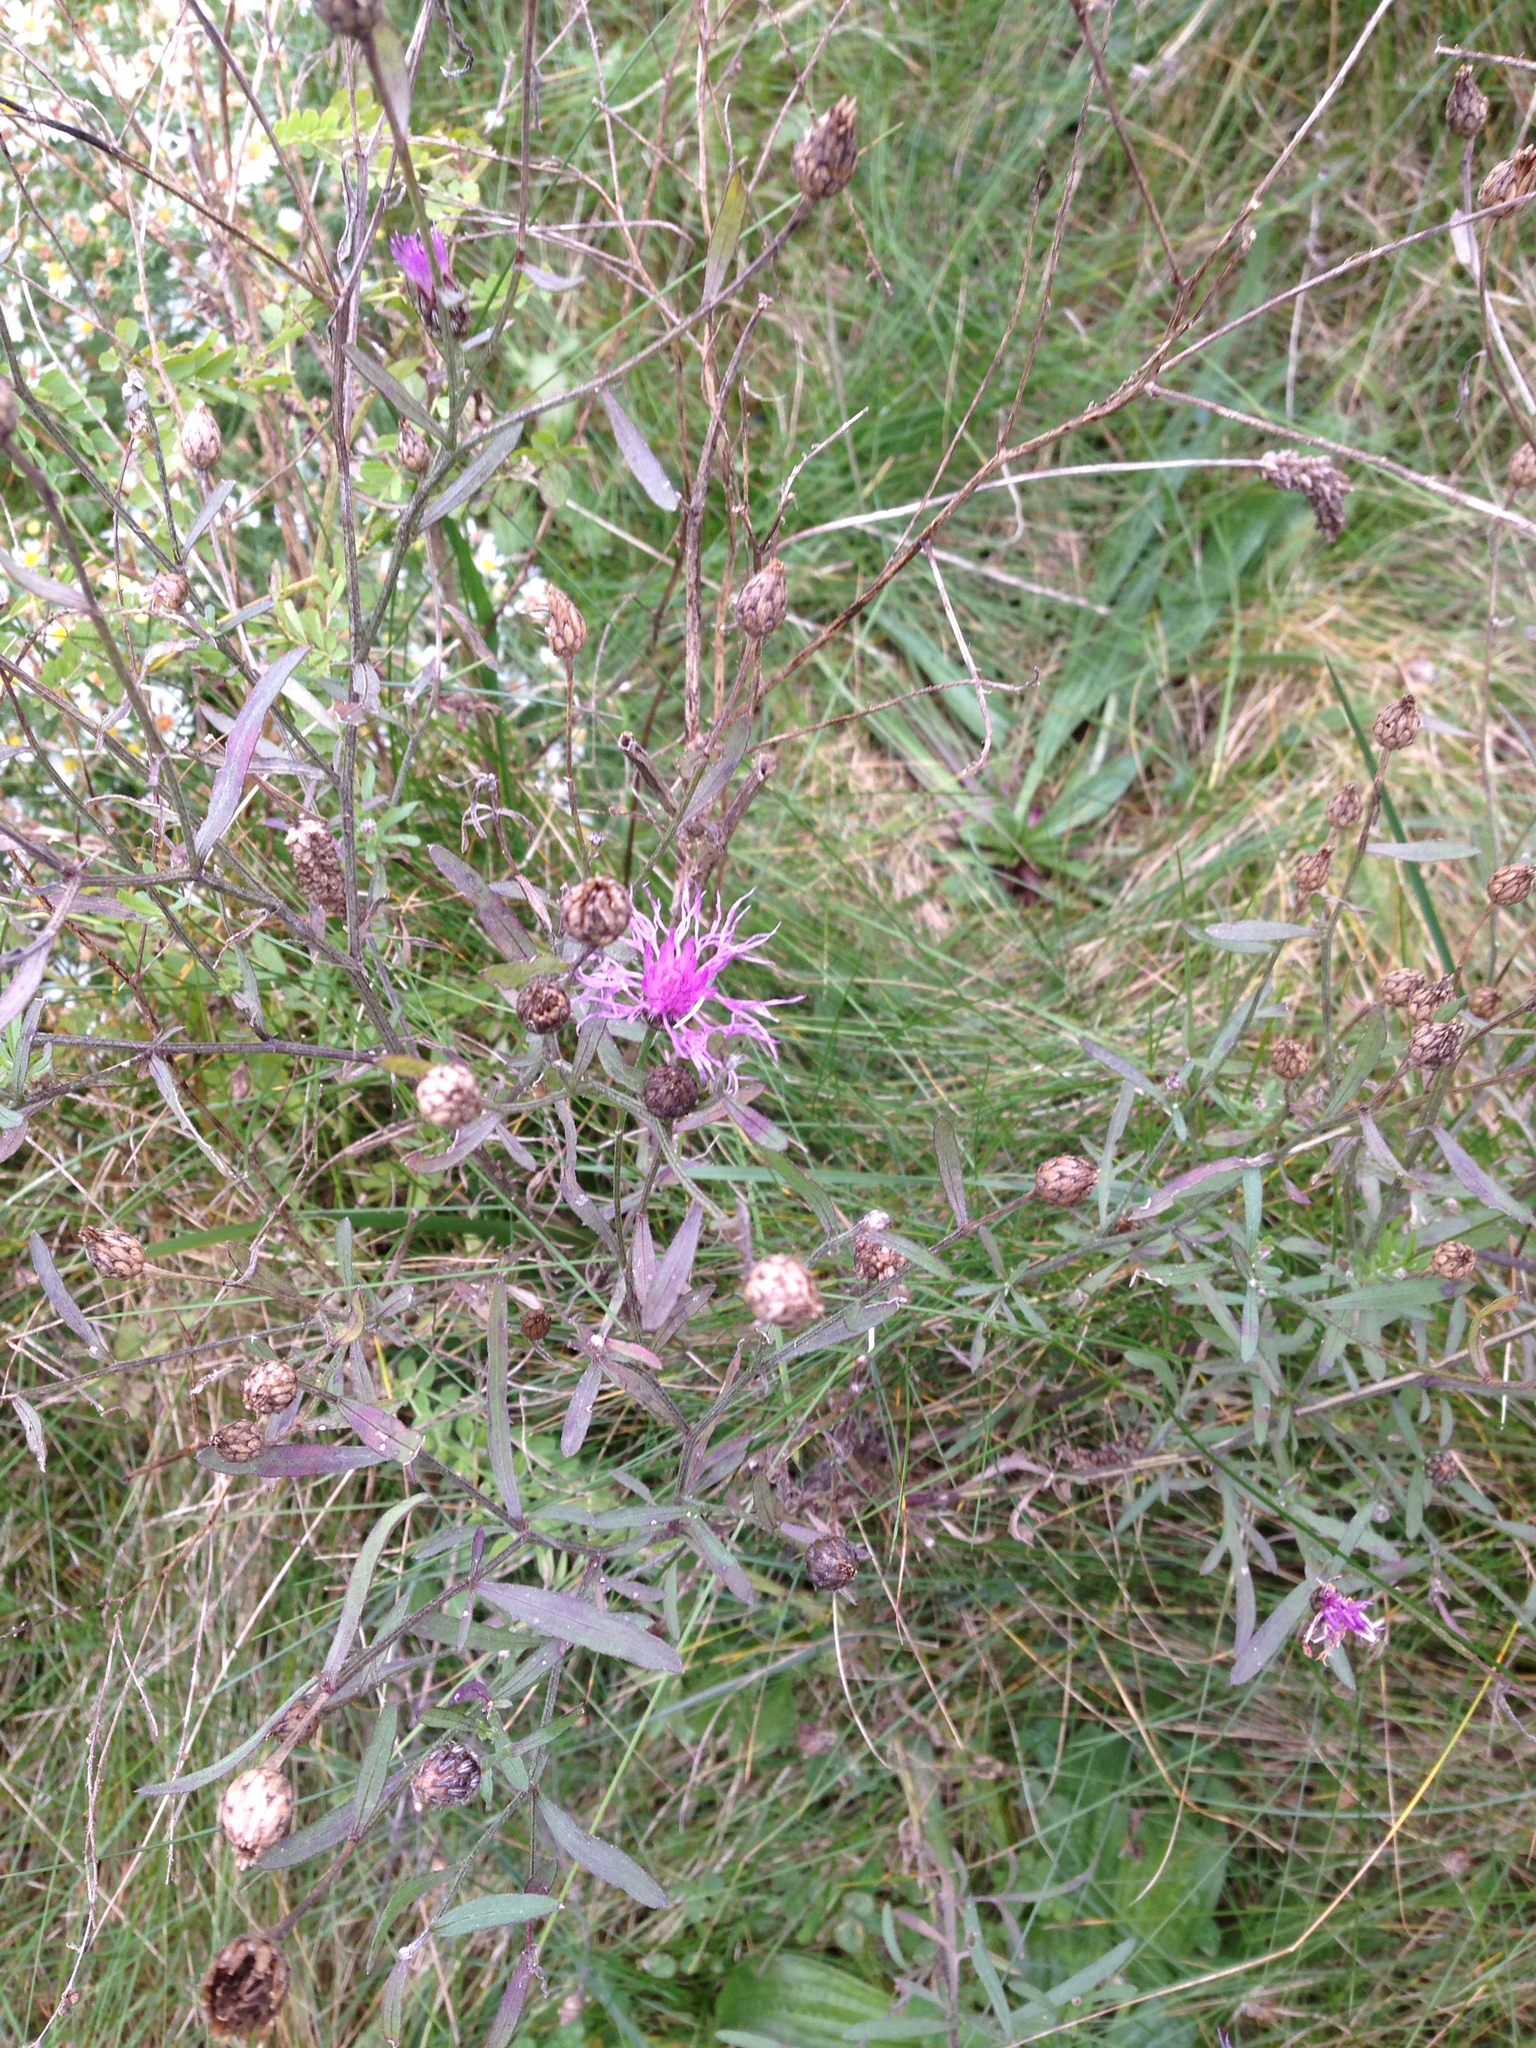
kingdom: Plantae
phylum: Tracheophyta
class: Magnoliopsida
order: Asterales
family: Asteraceae
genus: Centaurea
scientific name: Centaurea stoebe
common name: Spotted knapweed
